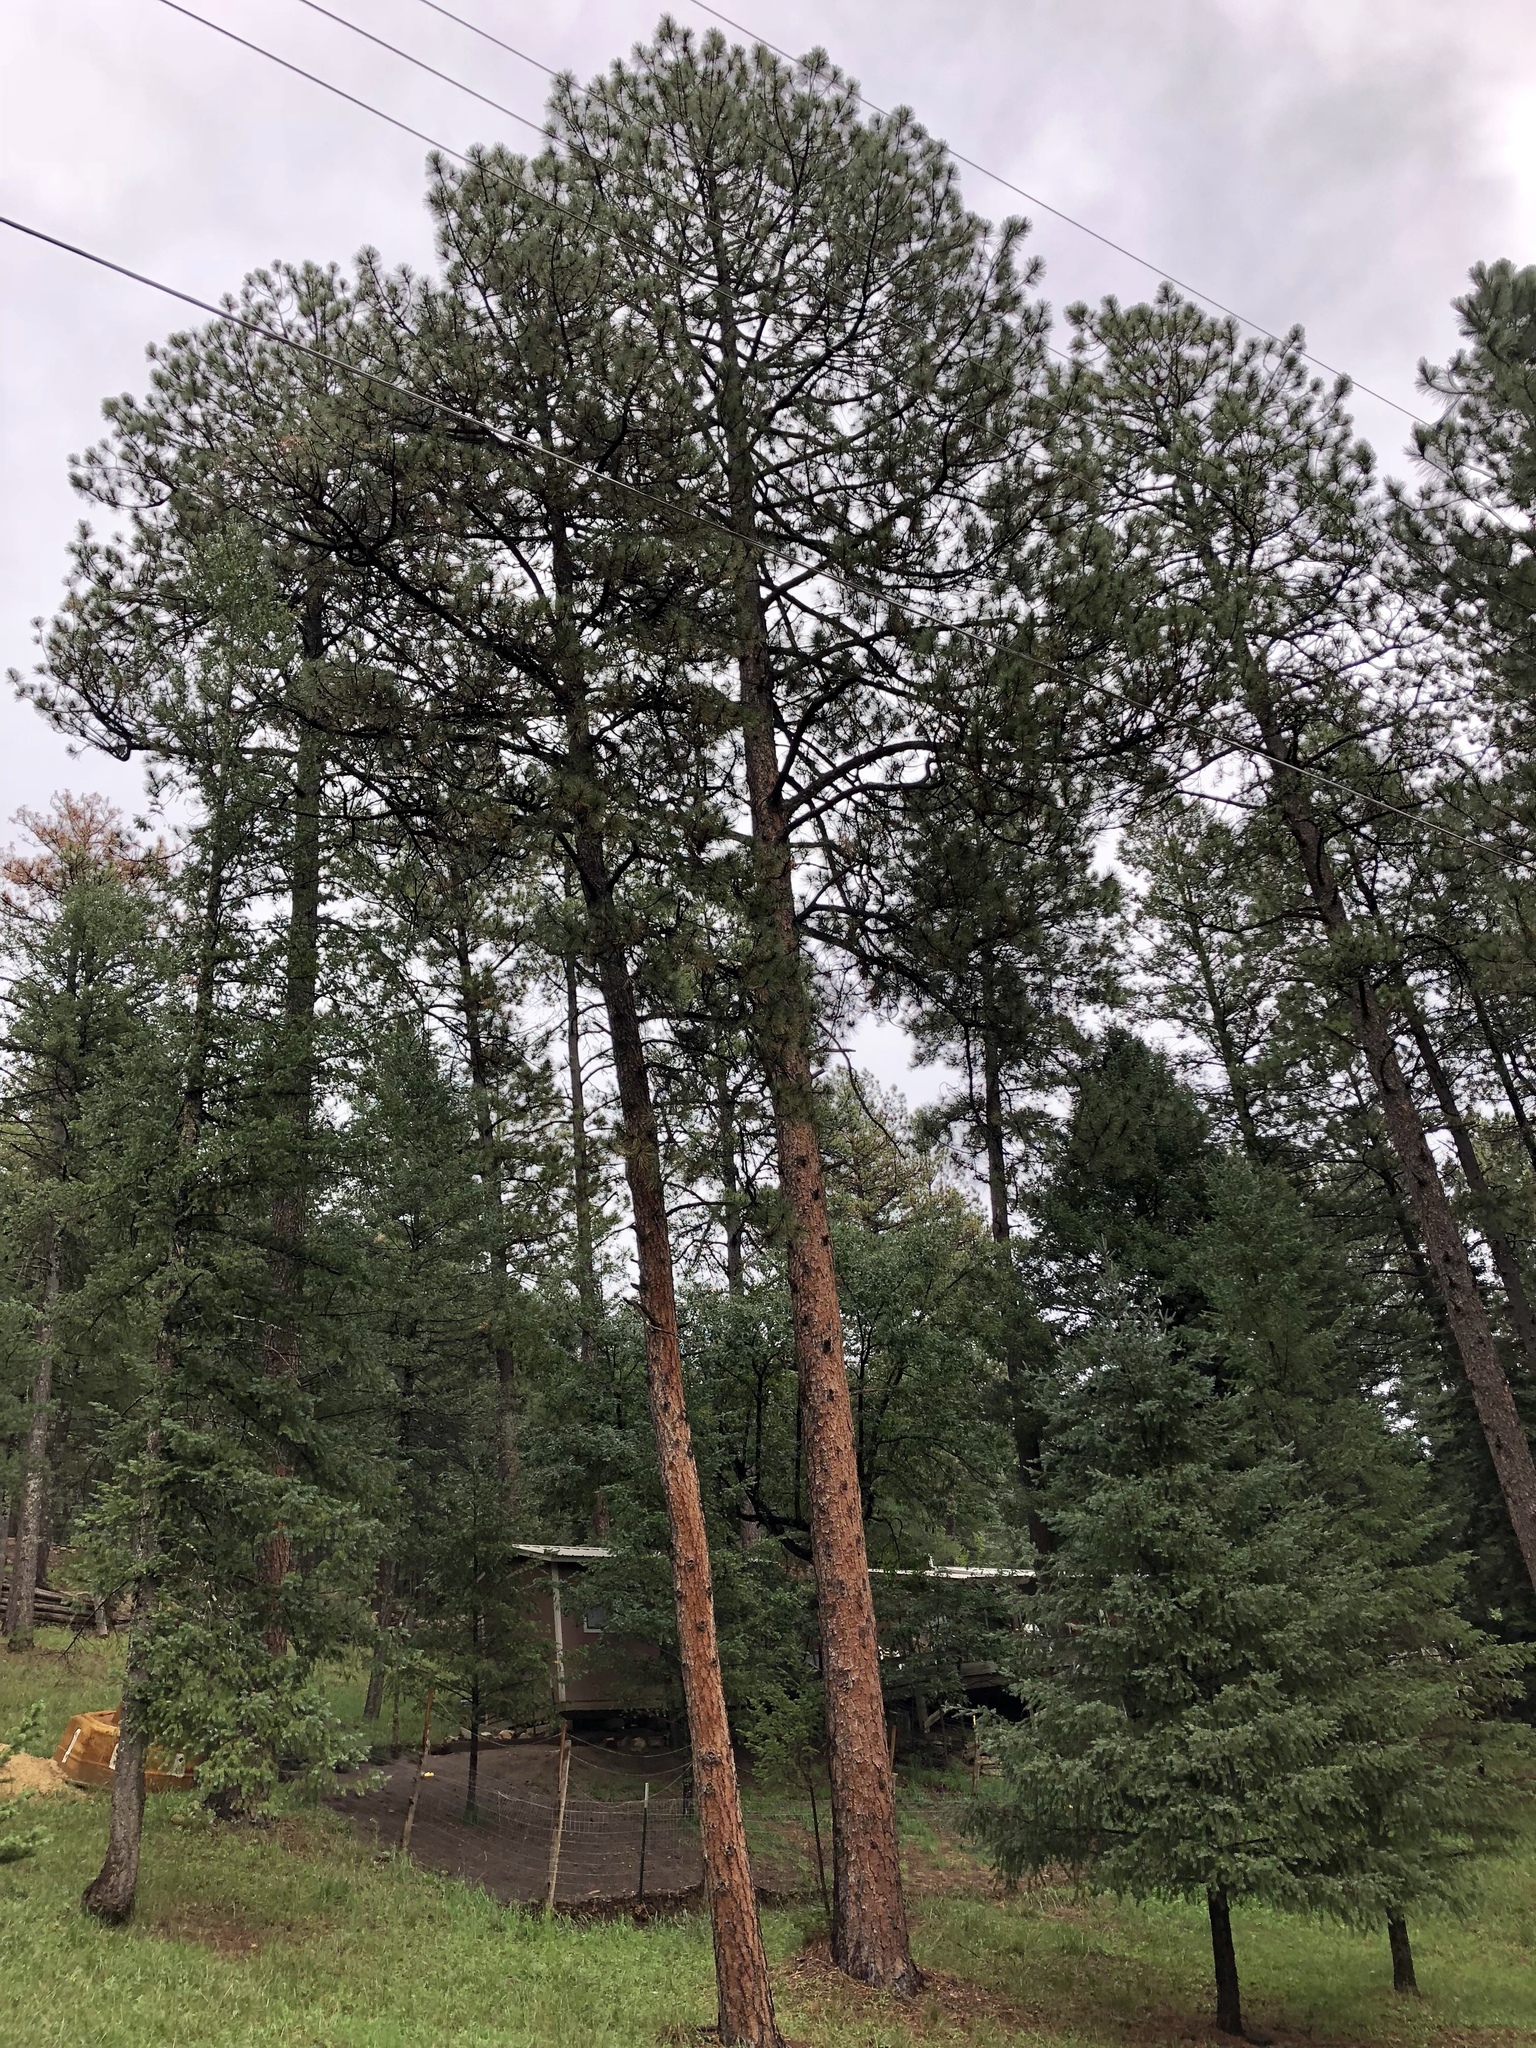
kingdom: Plantae
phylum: Tracheophyta
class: Pinopsida
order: Pinales
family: Pinaceae
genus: Pinus
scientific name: Pinus ponderosa
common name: Western yellow-pine
